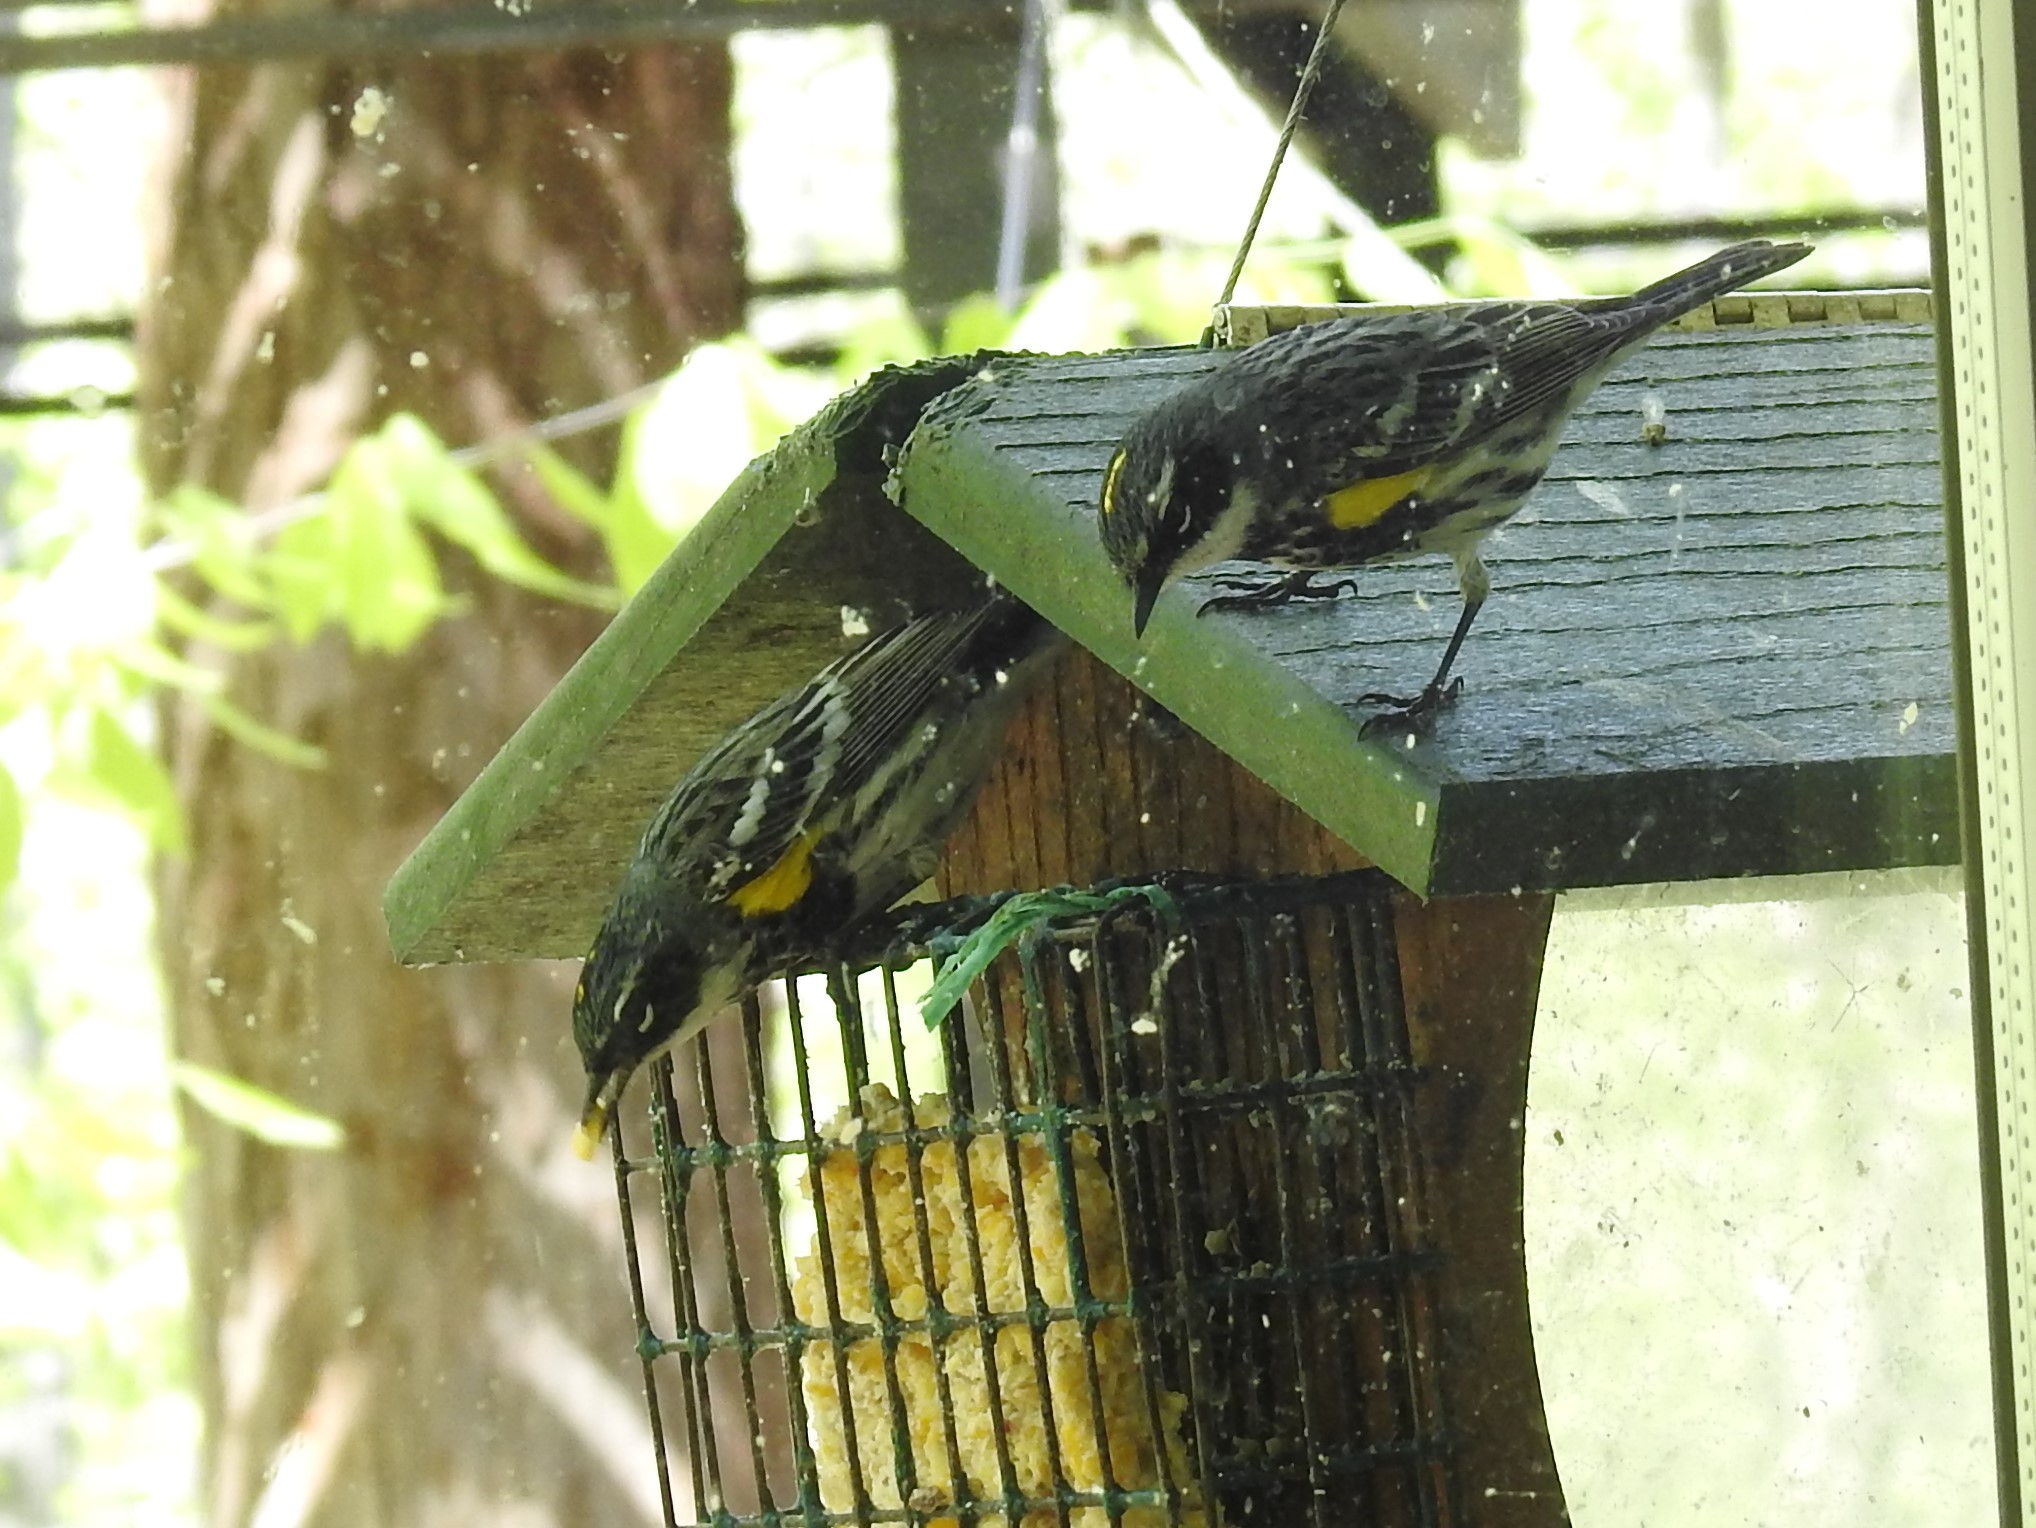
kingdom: Animalia
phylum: Chordata
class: Aves
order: Passeriformes
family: Parulidae
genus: Setophaga
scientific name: Setophaga coronata
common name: Myrtle warbler
